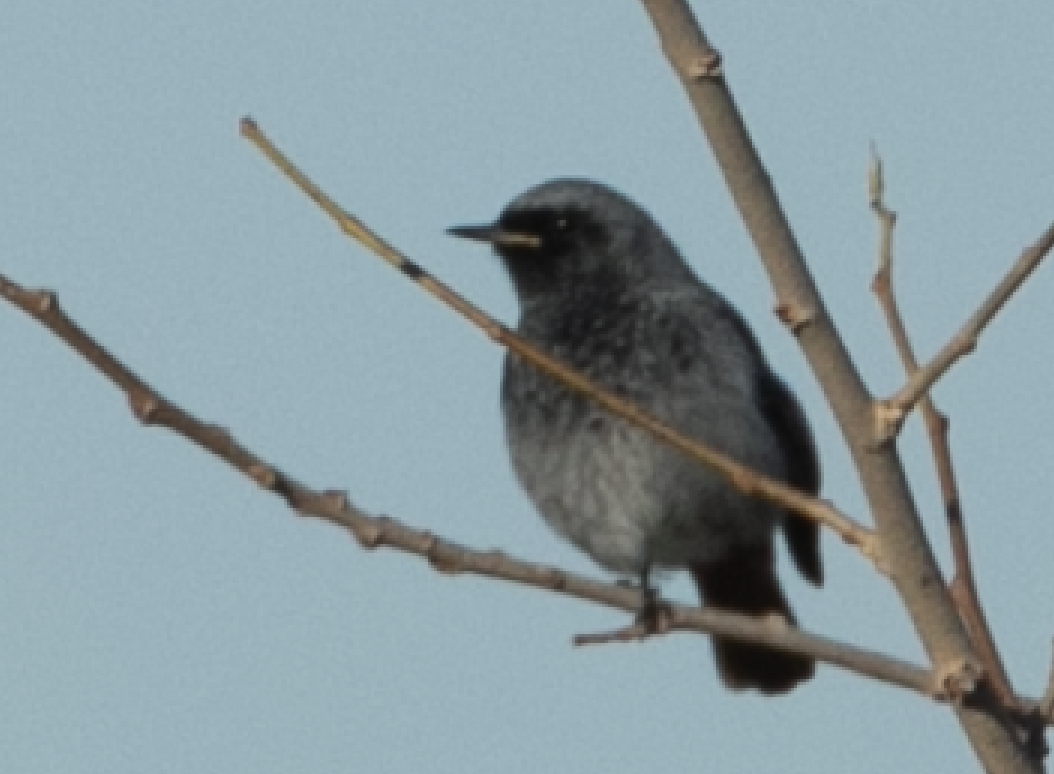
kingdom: Animalia
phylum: Chordata
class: Aves
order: Passeriformes
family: Muscicapidae
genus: Phoenicurus
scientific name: Phoenicurus ochruros
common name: Black redstart
